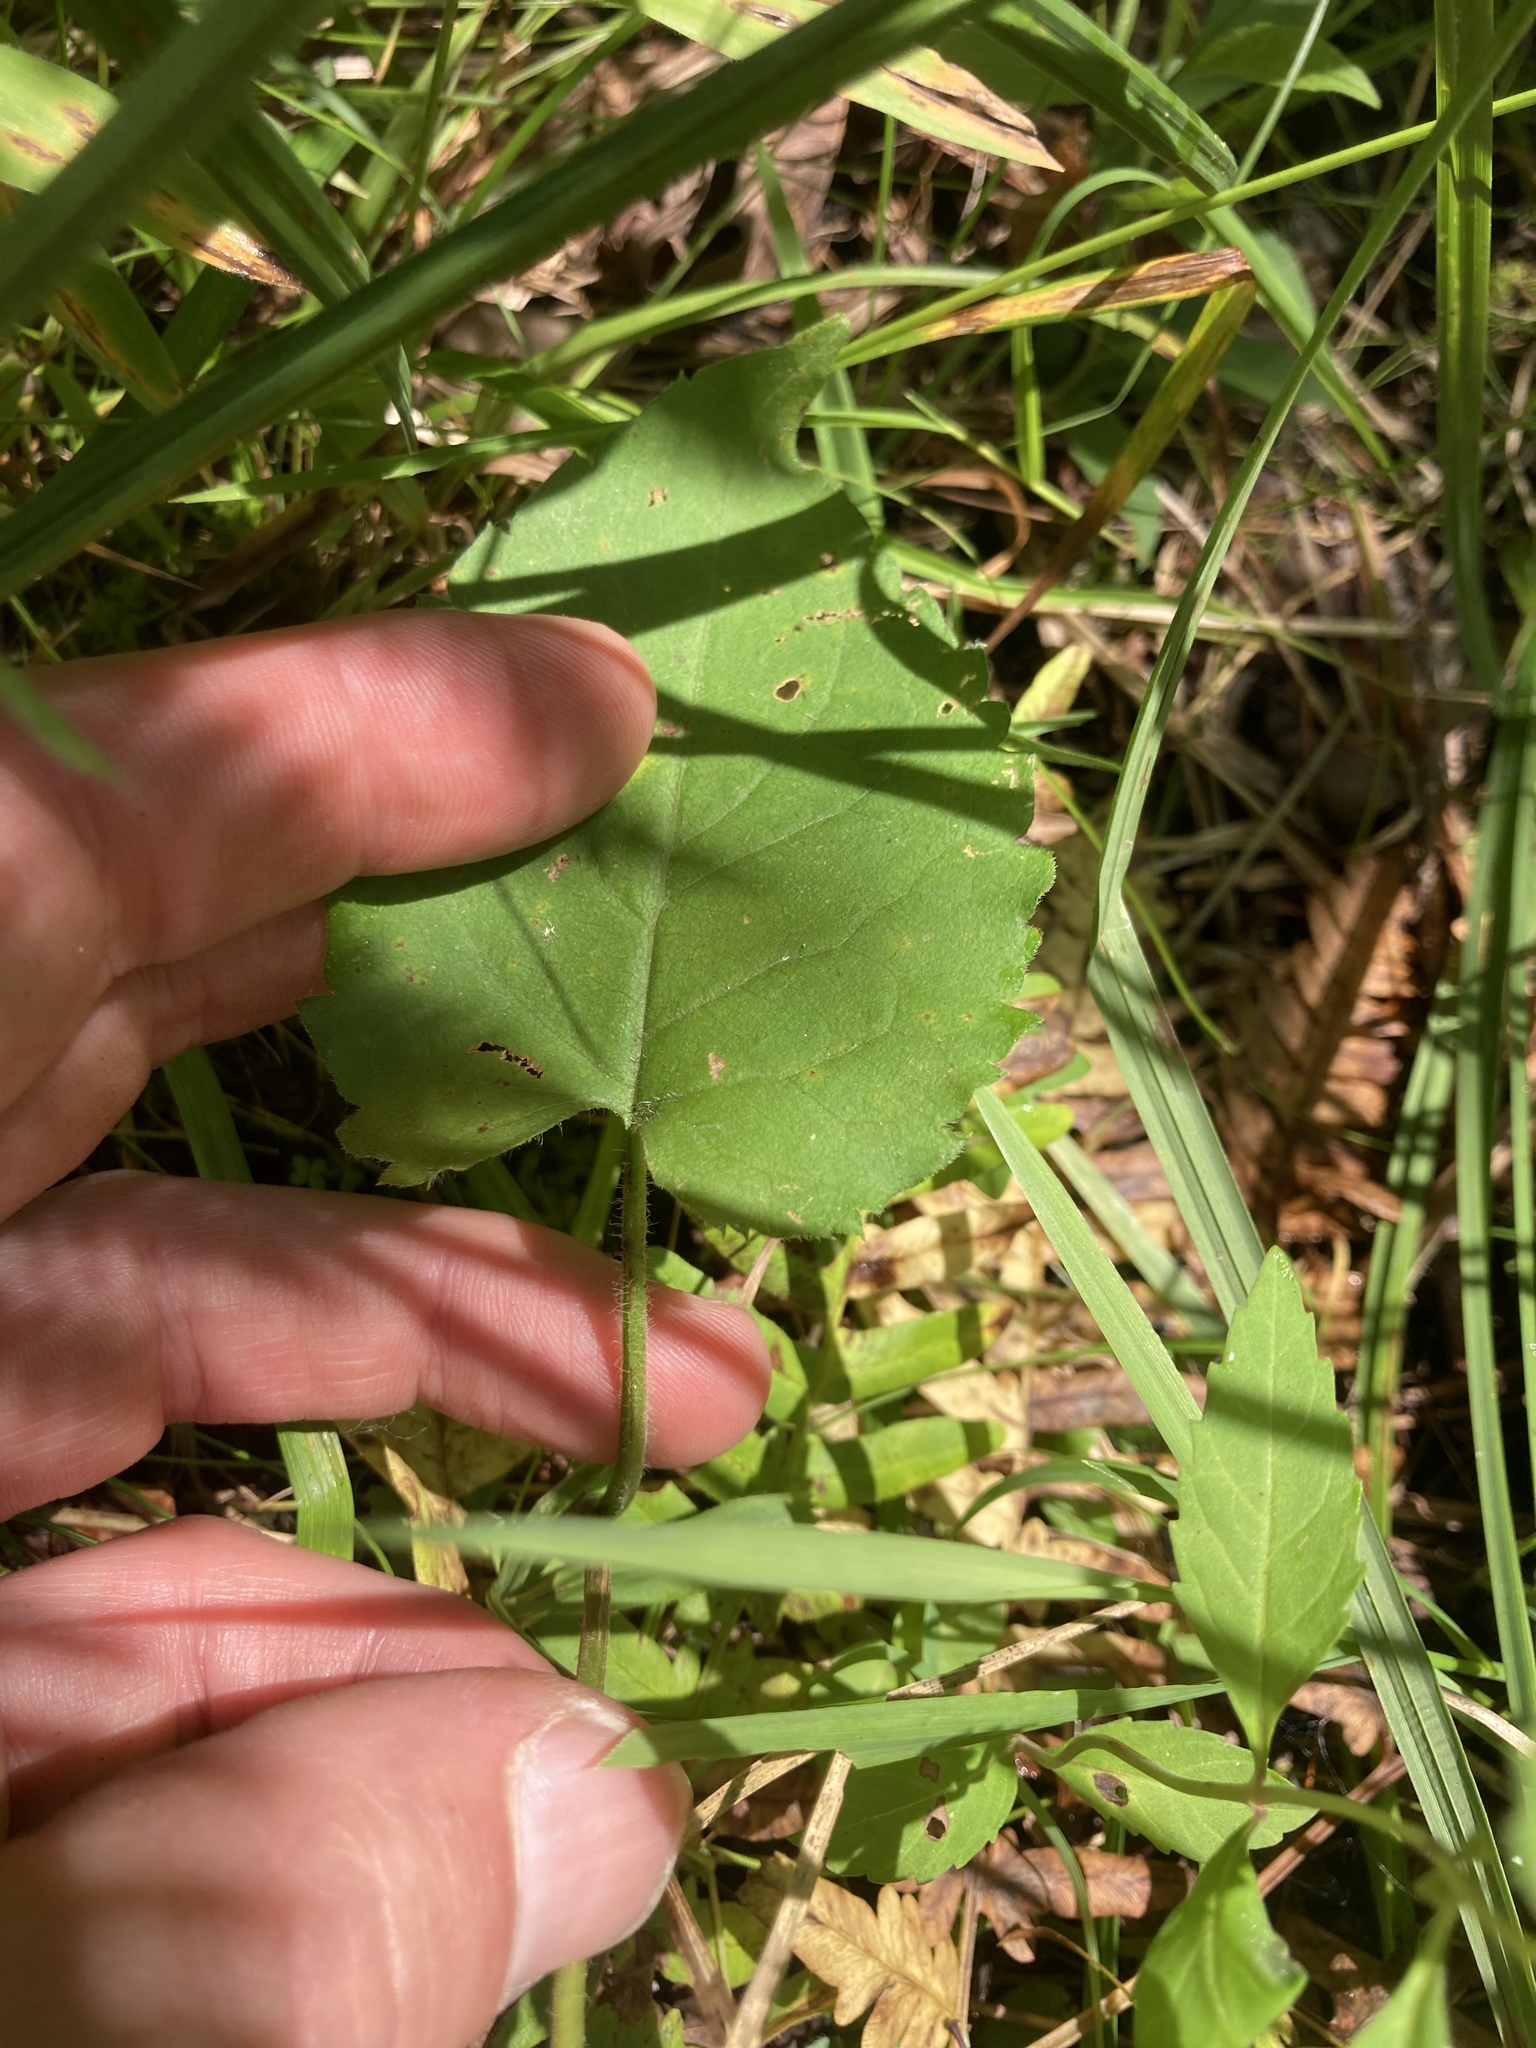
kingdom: Plantae
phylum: Tracheophyta
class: Magnoliopsida
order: Asterales
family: Asteraceae
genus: Eurybia
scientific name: Eurybia macrophylla
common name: Big-leaved aster
